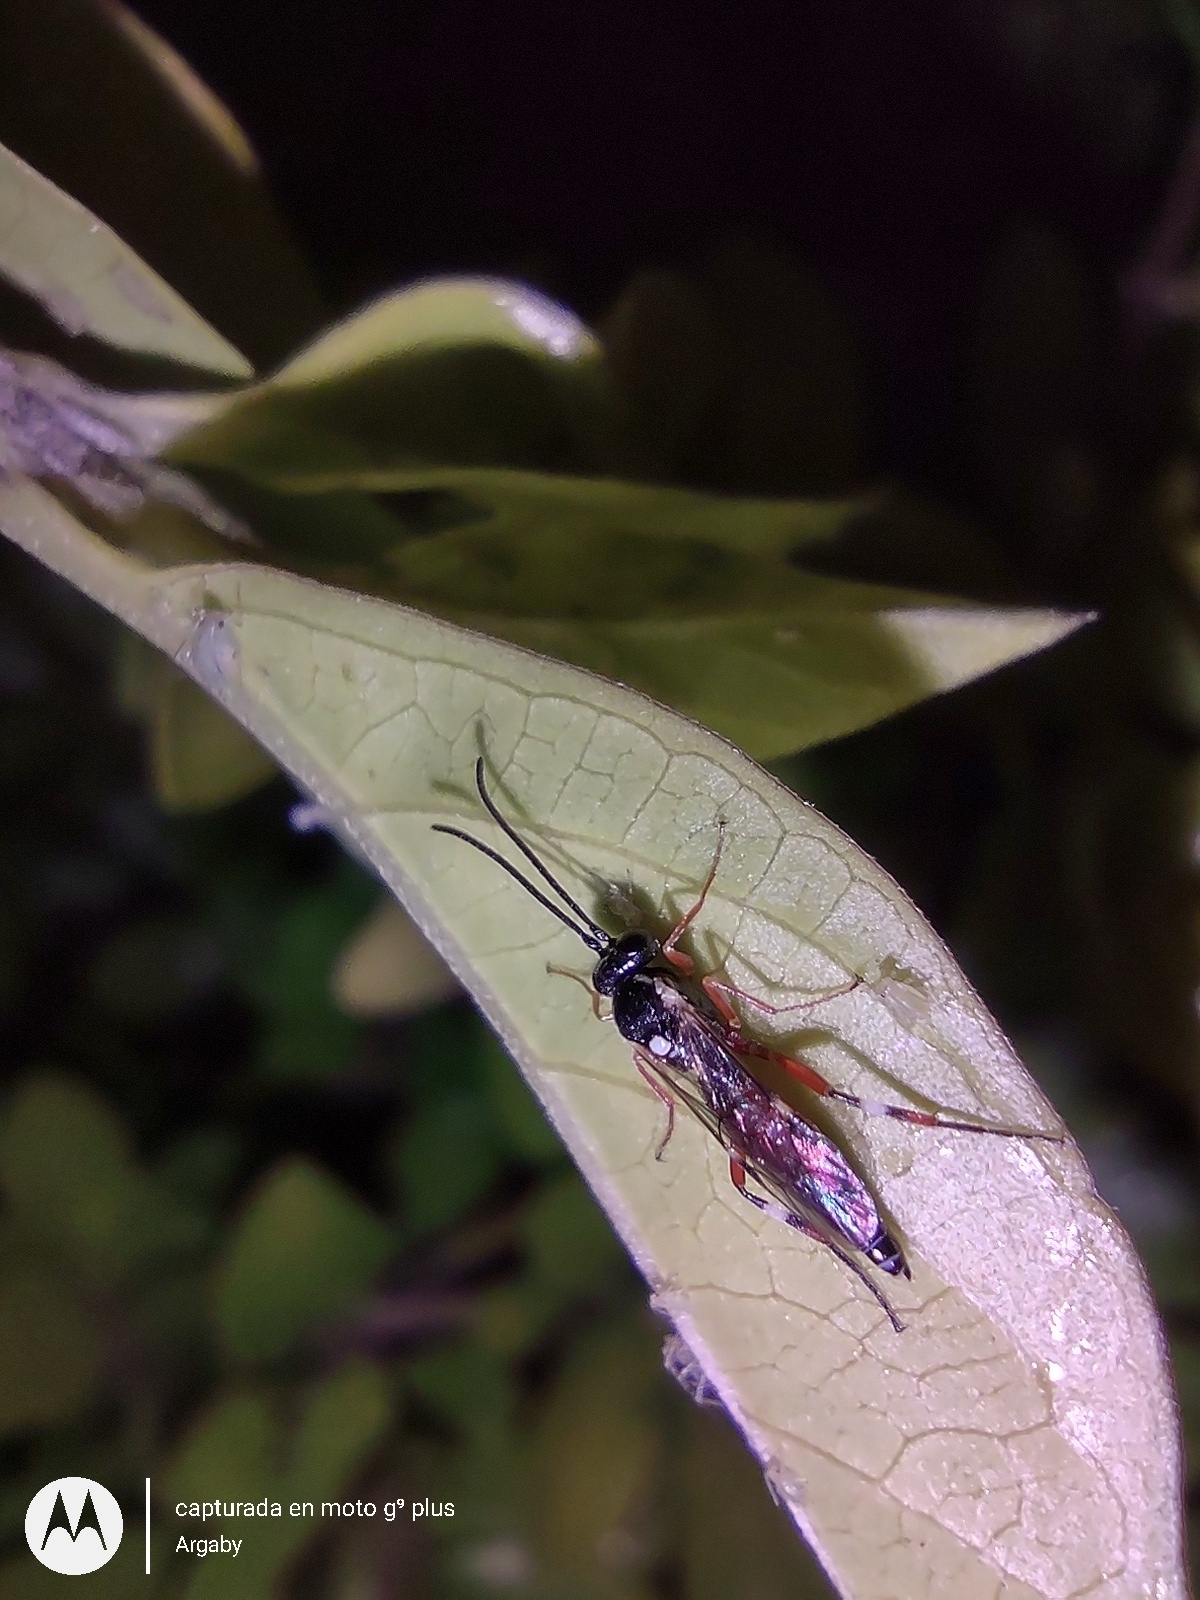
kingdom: Animalia
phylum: Arthropoda
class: Insecta
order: Hymenoptera
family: Ichneumonidae
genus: Diplazon
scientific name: Diplazon laetatorius
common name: Parasitoid wasp
